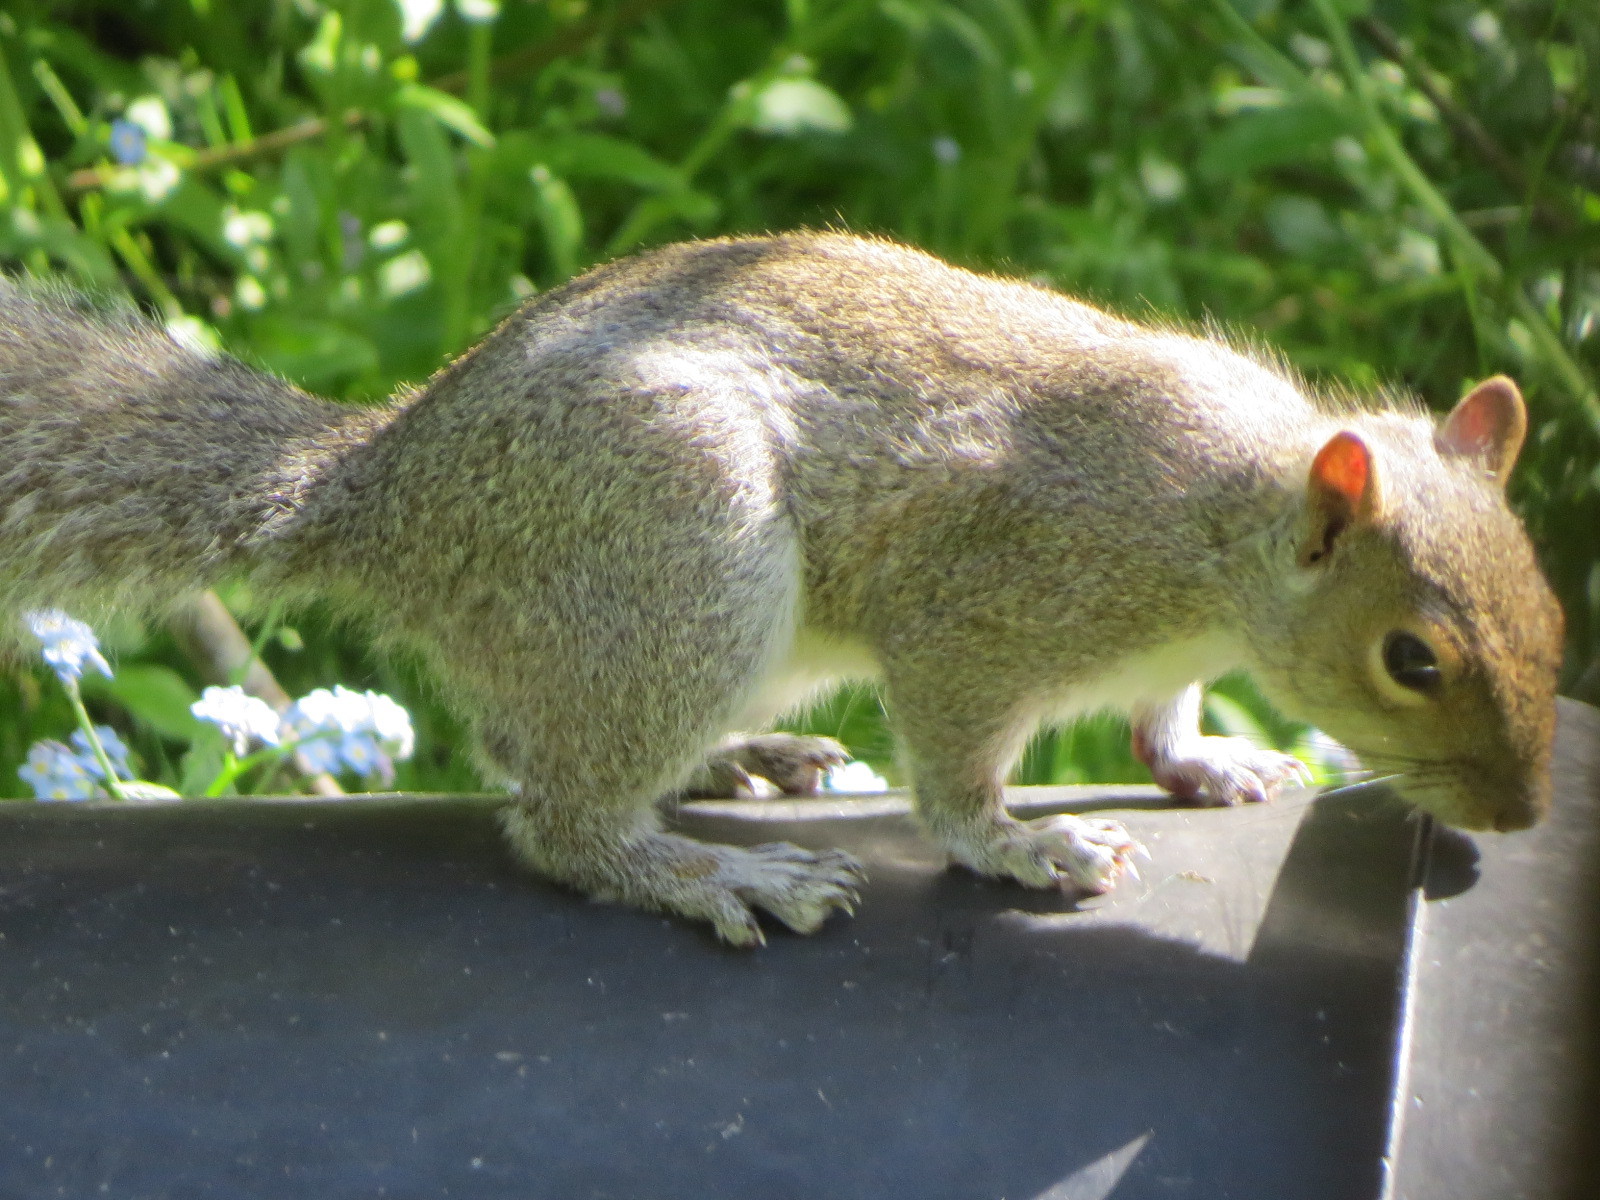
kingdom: Animalia
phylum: Chordata
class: Mammalia
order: Rodentia
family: Sciuridae
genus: Sciurus
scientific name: Sciurus carolinensis
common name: Eastern gray squirrel
